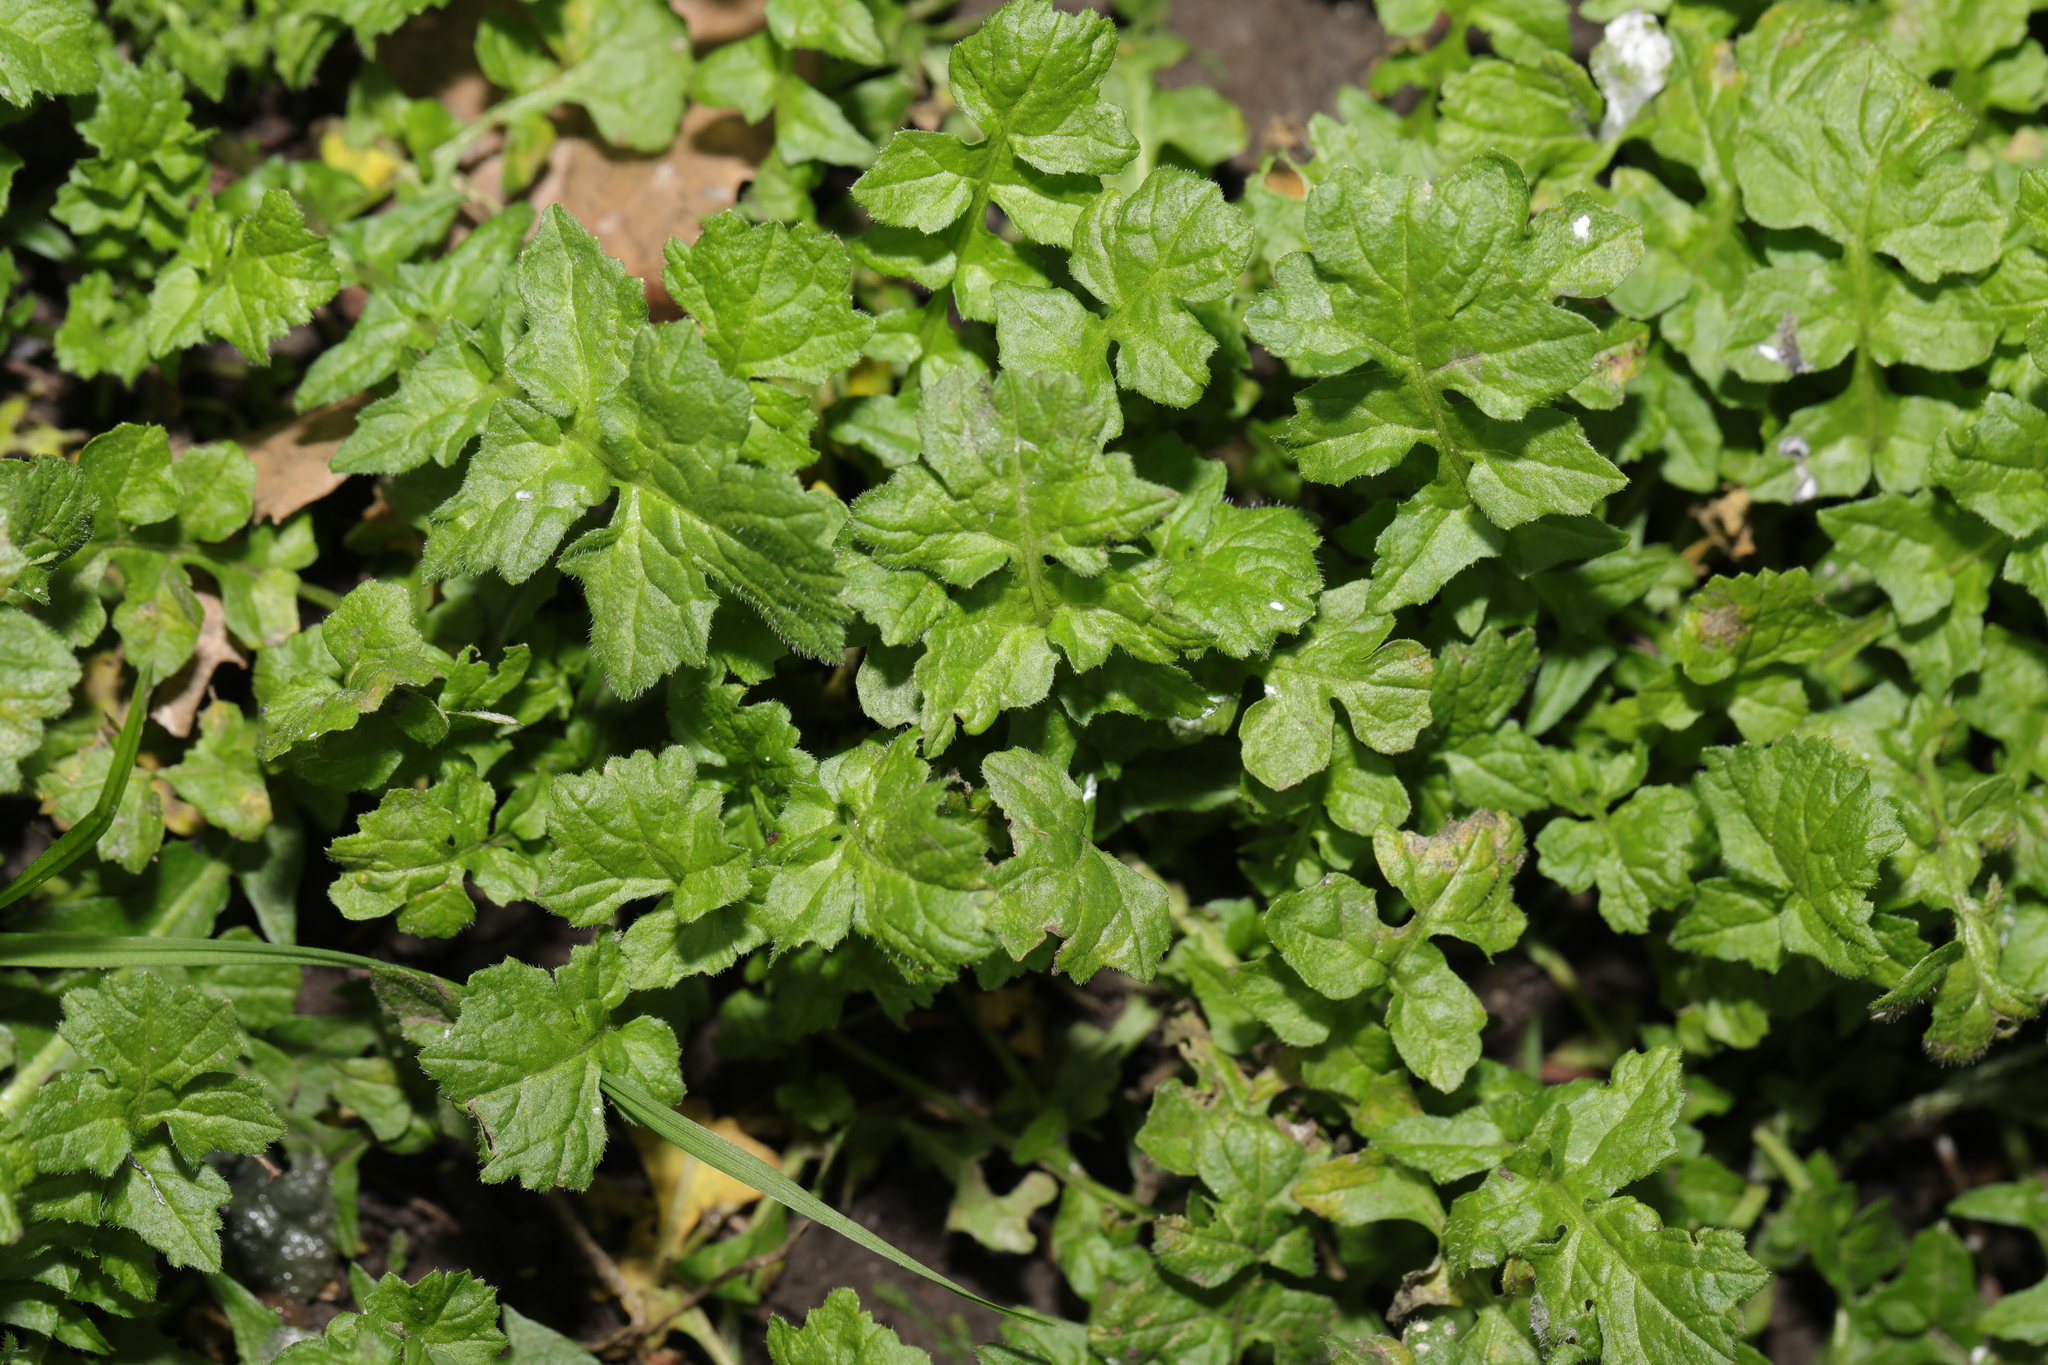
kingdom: Plantae
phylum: Tracheophyta
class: Magnoliopsida
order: Brassicales
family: Brassicaceae
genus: Sisymbrium
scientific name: Sisymbrium officinale
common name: Hedge mustard
